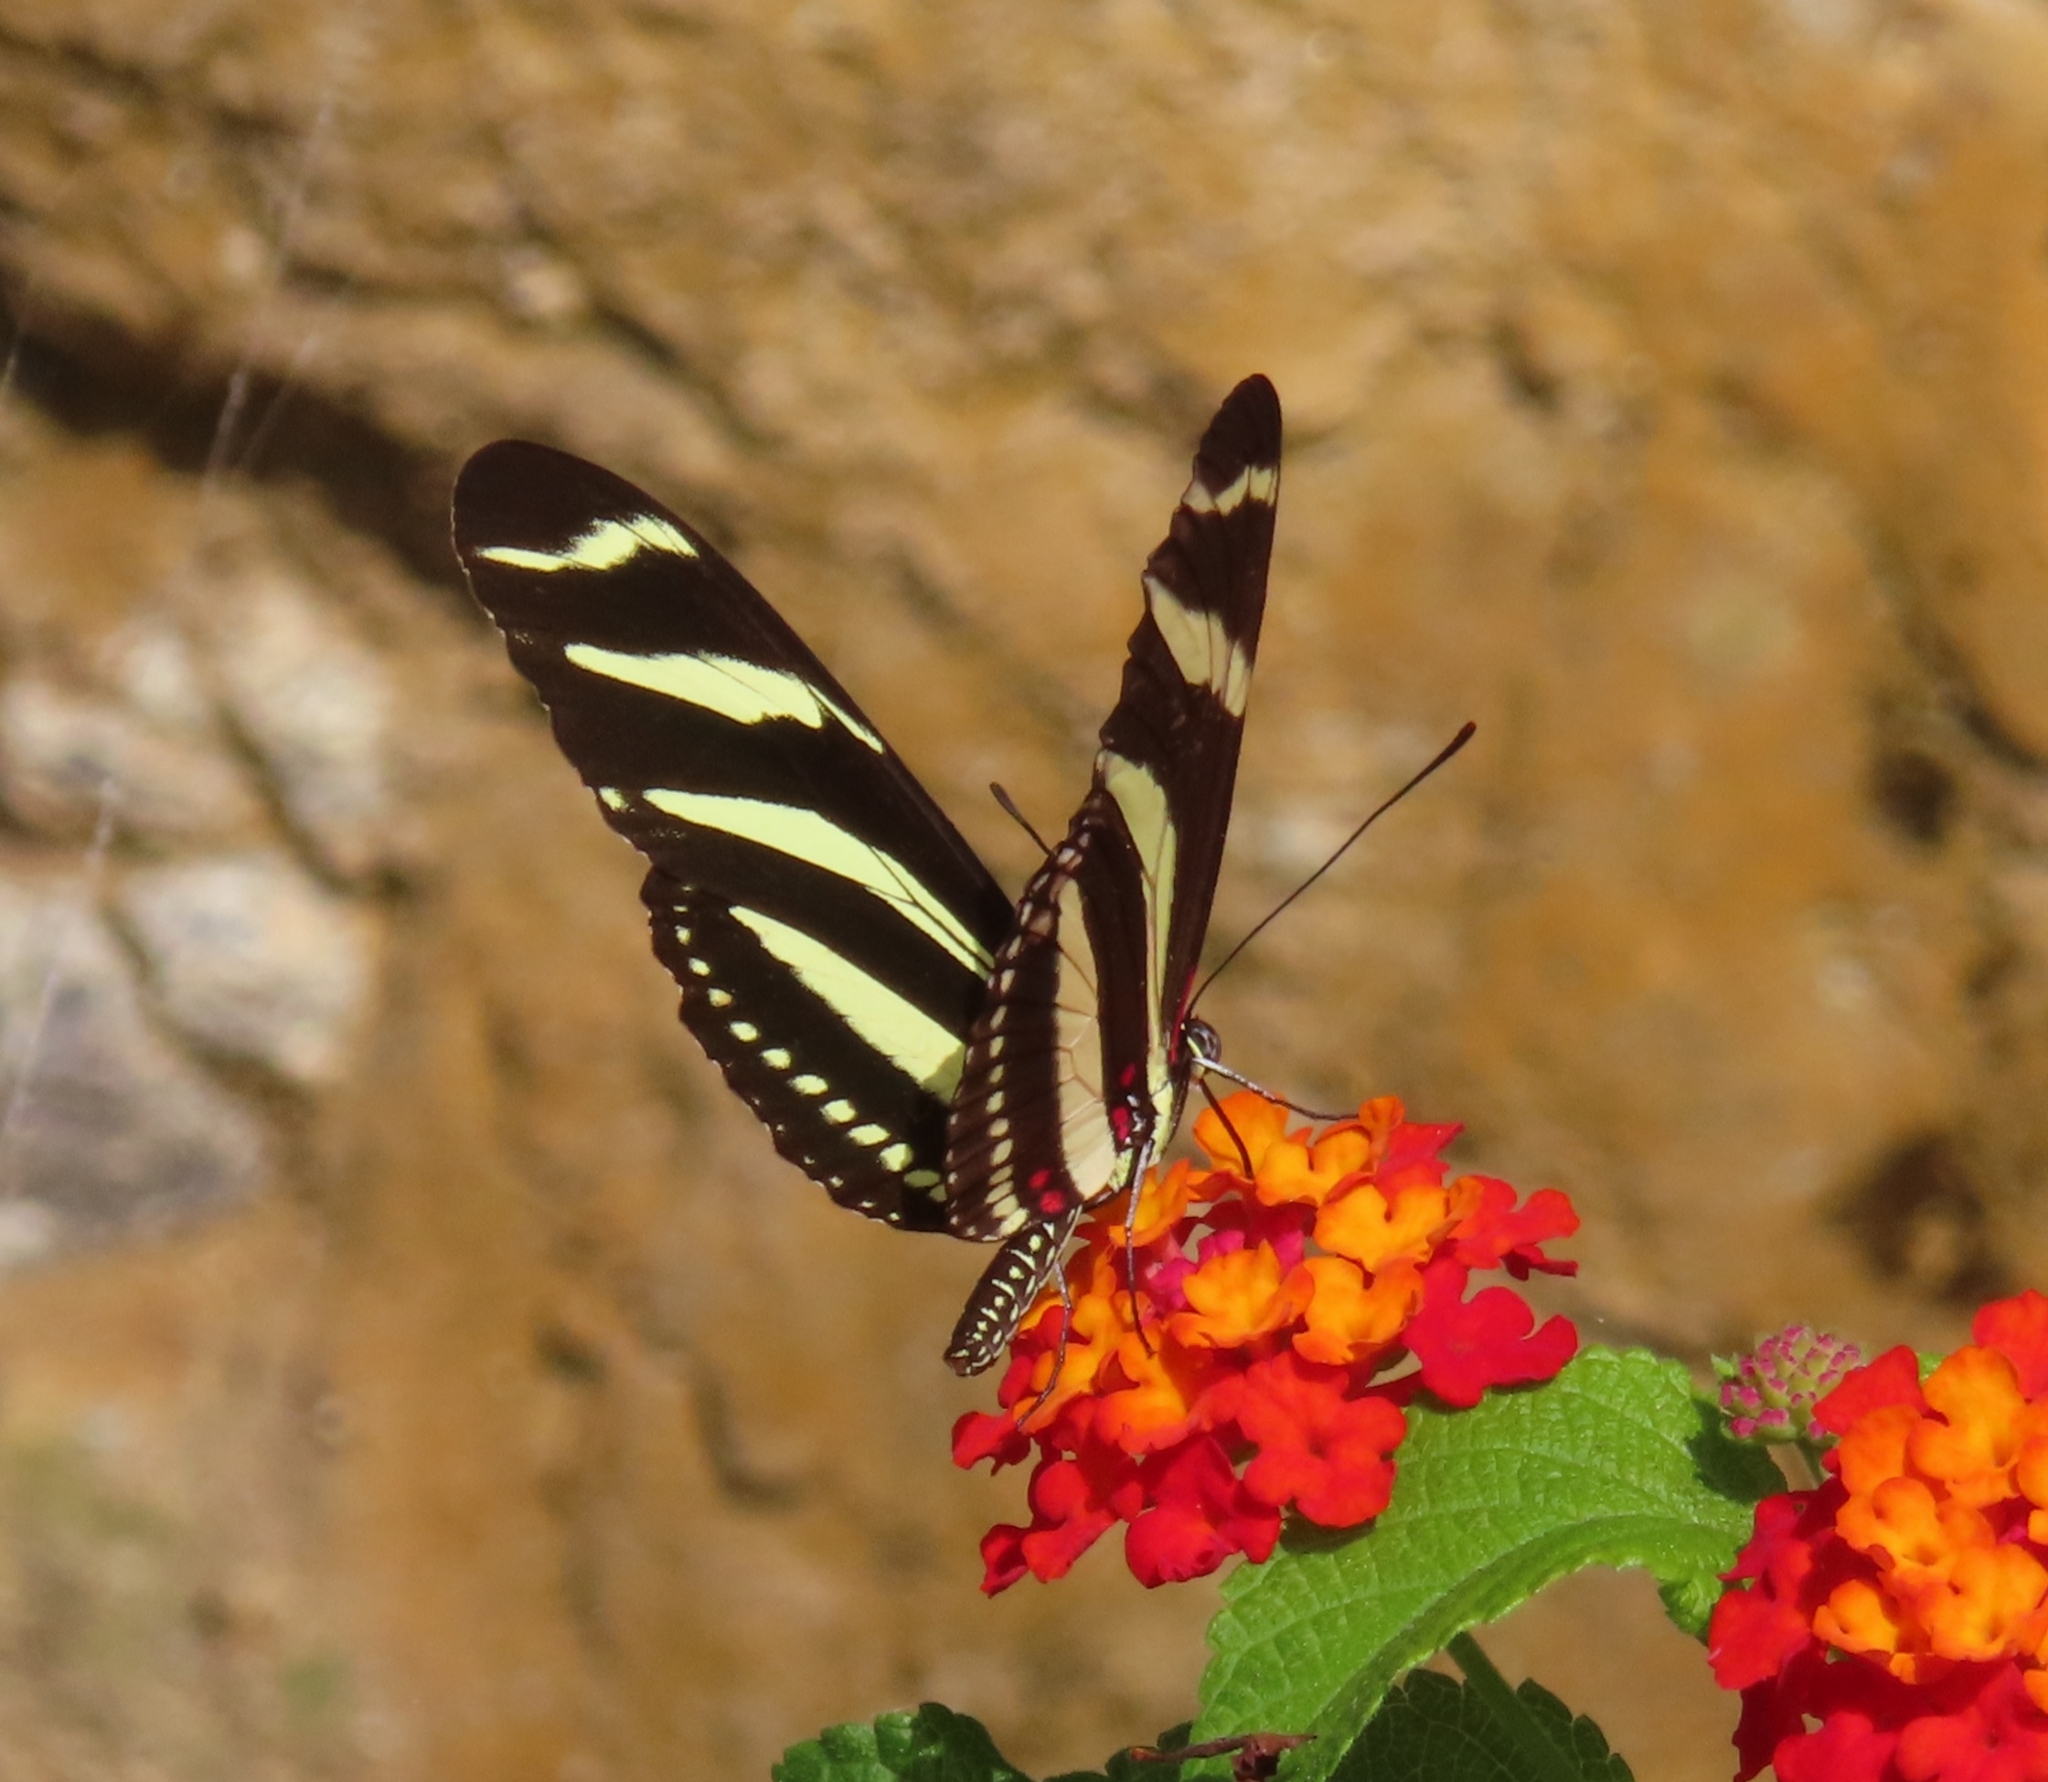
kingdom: Animalia
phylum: Arthropoda
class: Insecta
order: Lepidoptera
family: Nymphalidae
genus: Heliconius
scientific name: Heliconius charithonia
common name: Zebra long wing
